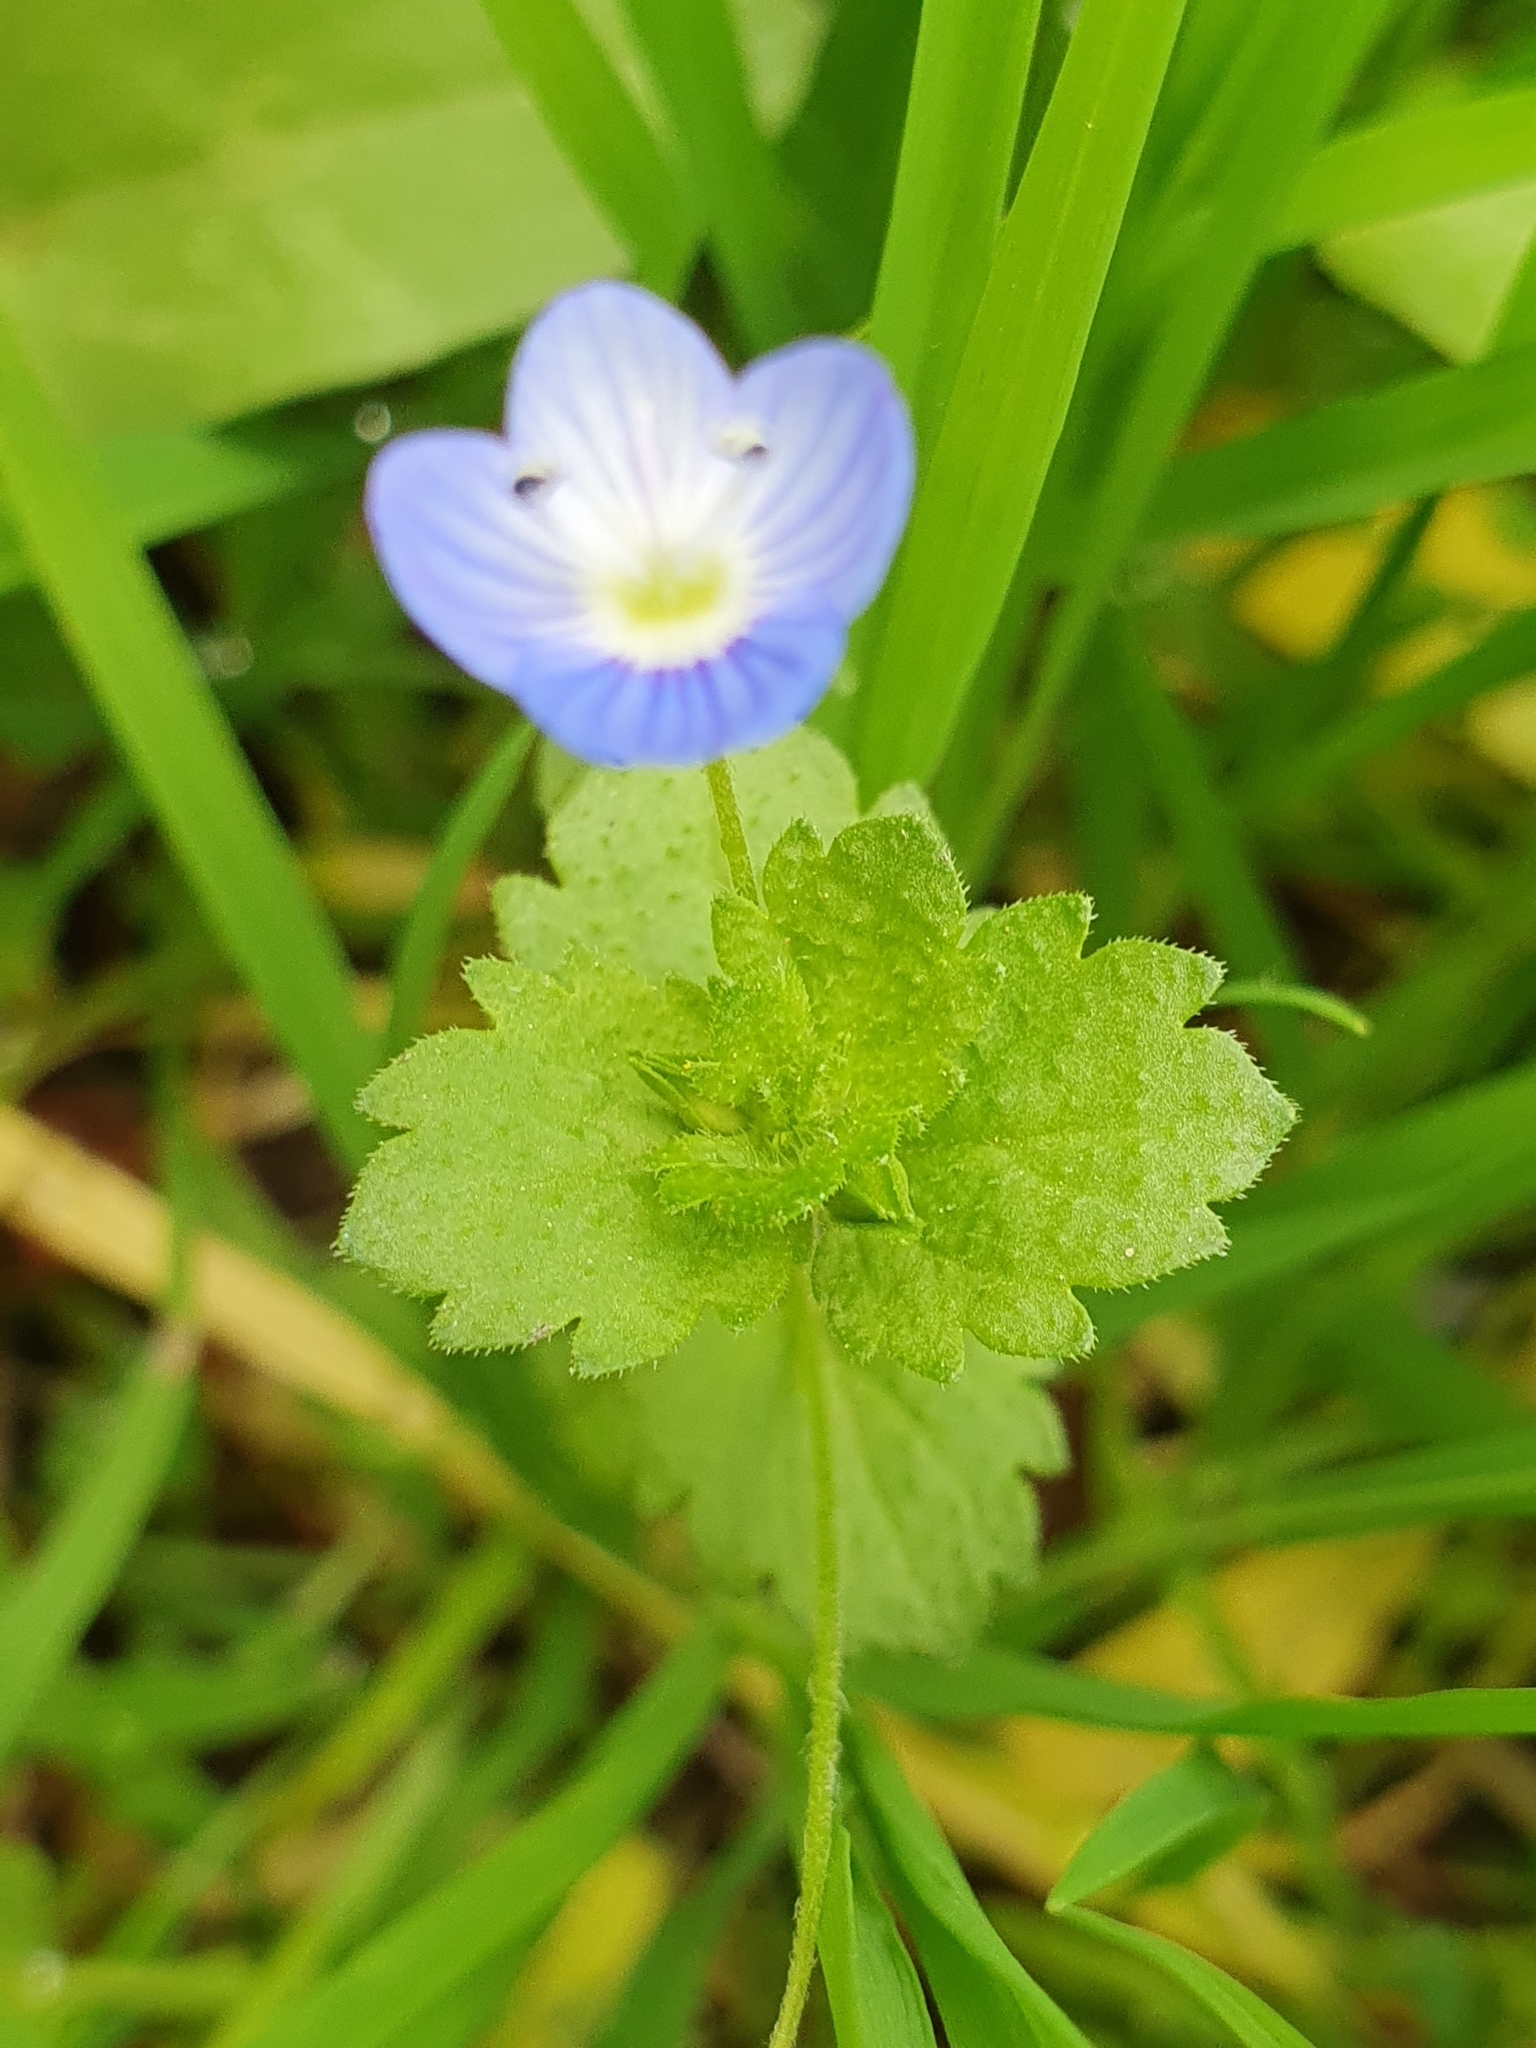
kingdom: Plantae
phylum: Tracheophyta
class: Magnoliopsida
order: Lamiales
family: Plantaginaceae
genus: Veronica
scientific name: Veronica persica
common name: Common field-speedwell
